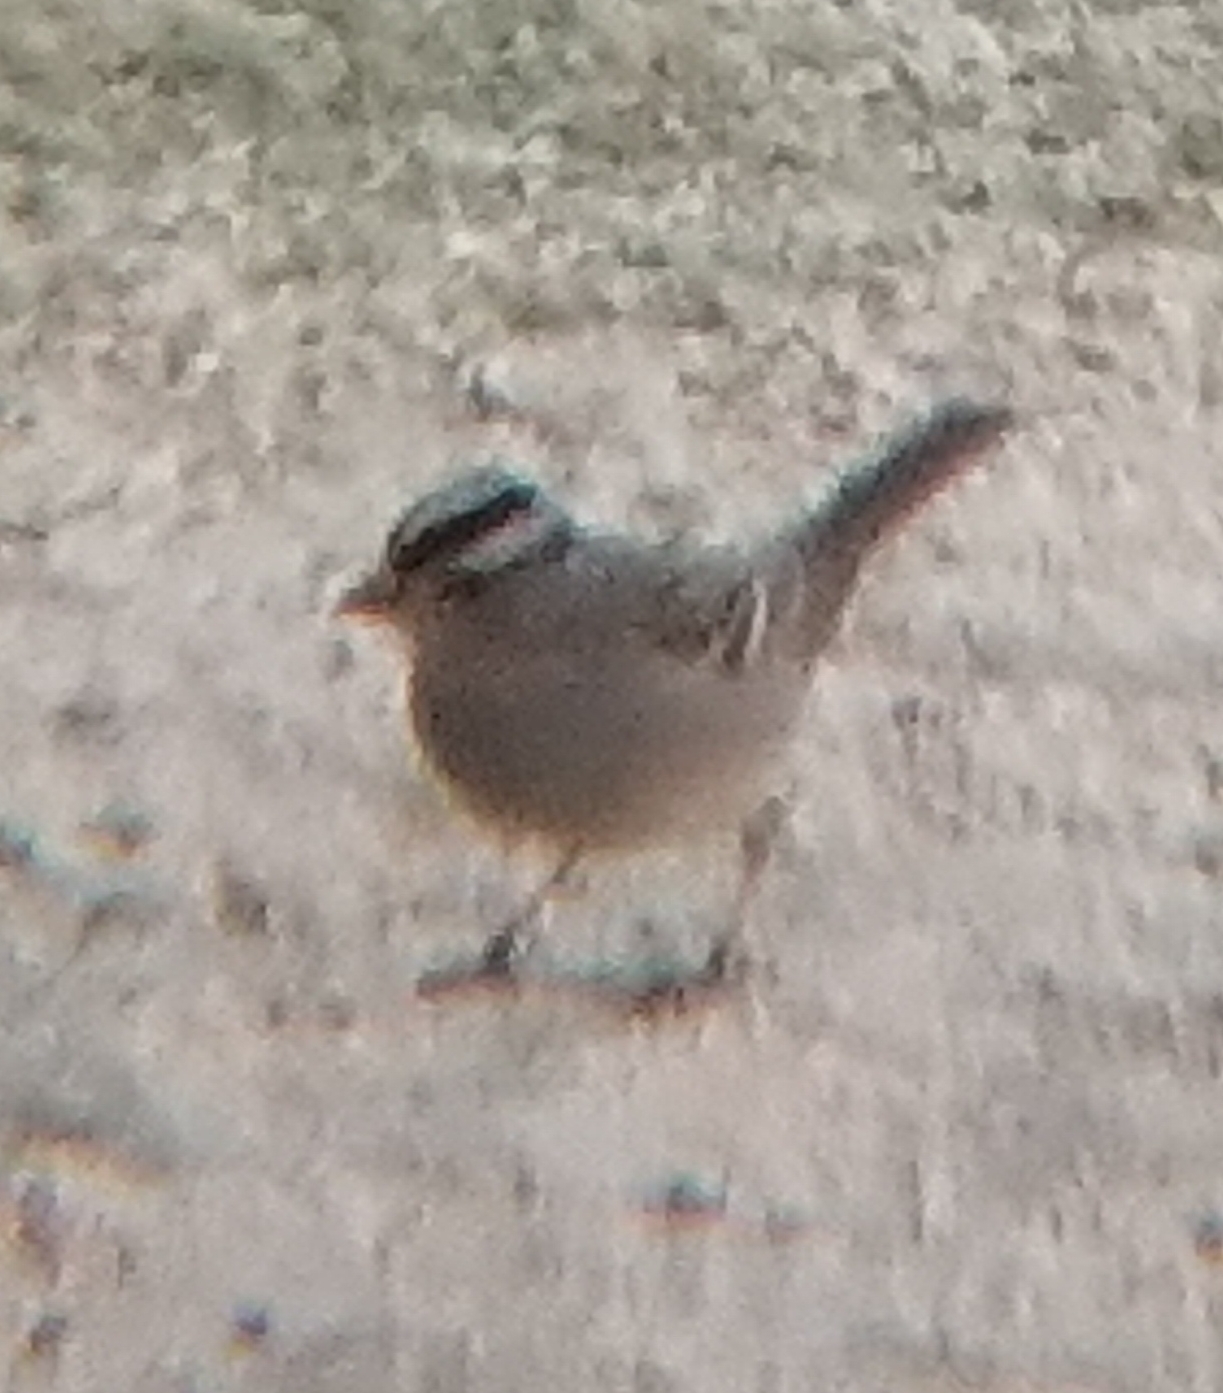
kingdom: Animalia
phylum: Chordata
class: Aves
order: Passeriformes
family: Passerellidae
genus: Zonotrichia
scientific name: Zonotrichia leucophrys
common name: White-crowned sparrow
